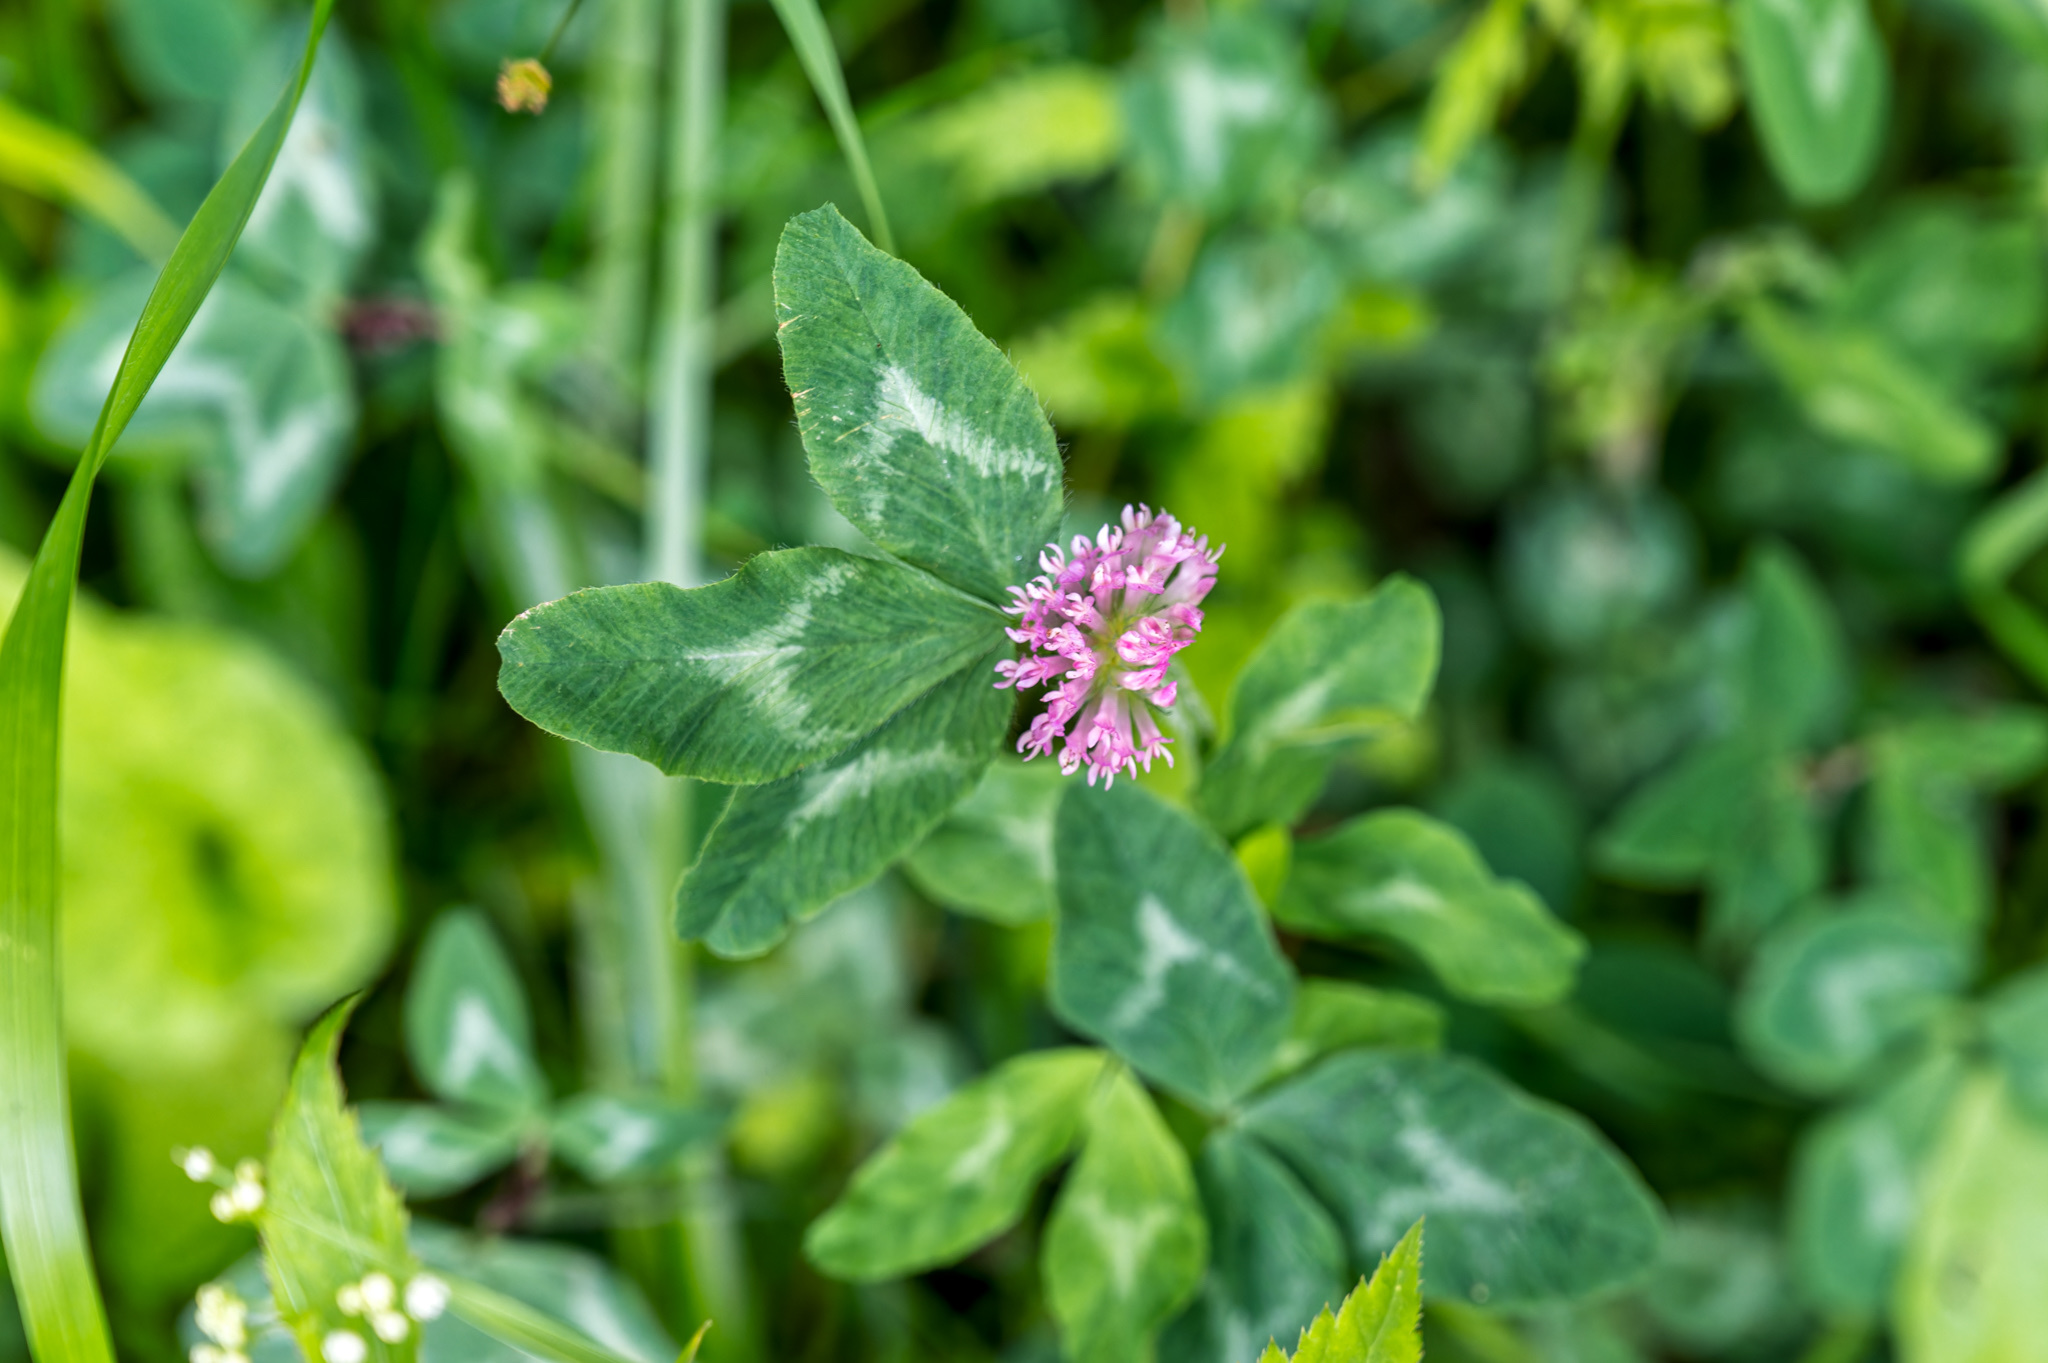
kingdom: Plantae
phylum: Tracheophyta
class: Magnoliopsida
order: Fabales
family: Fabaceae
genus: Trifolium
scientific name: Trifolium pratense
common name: Red clover
